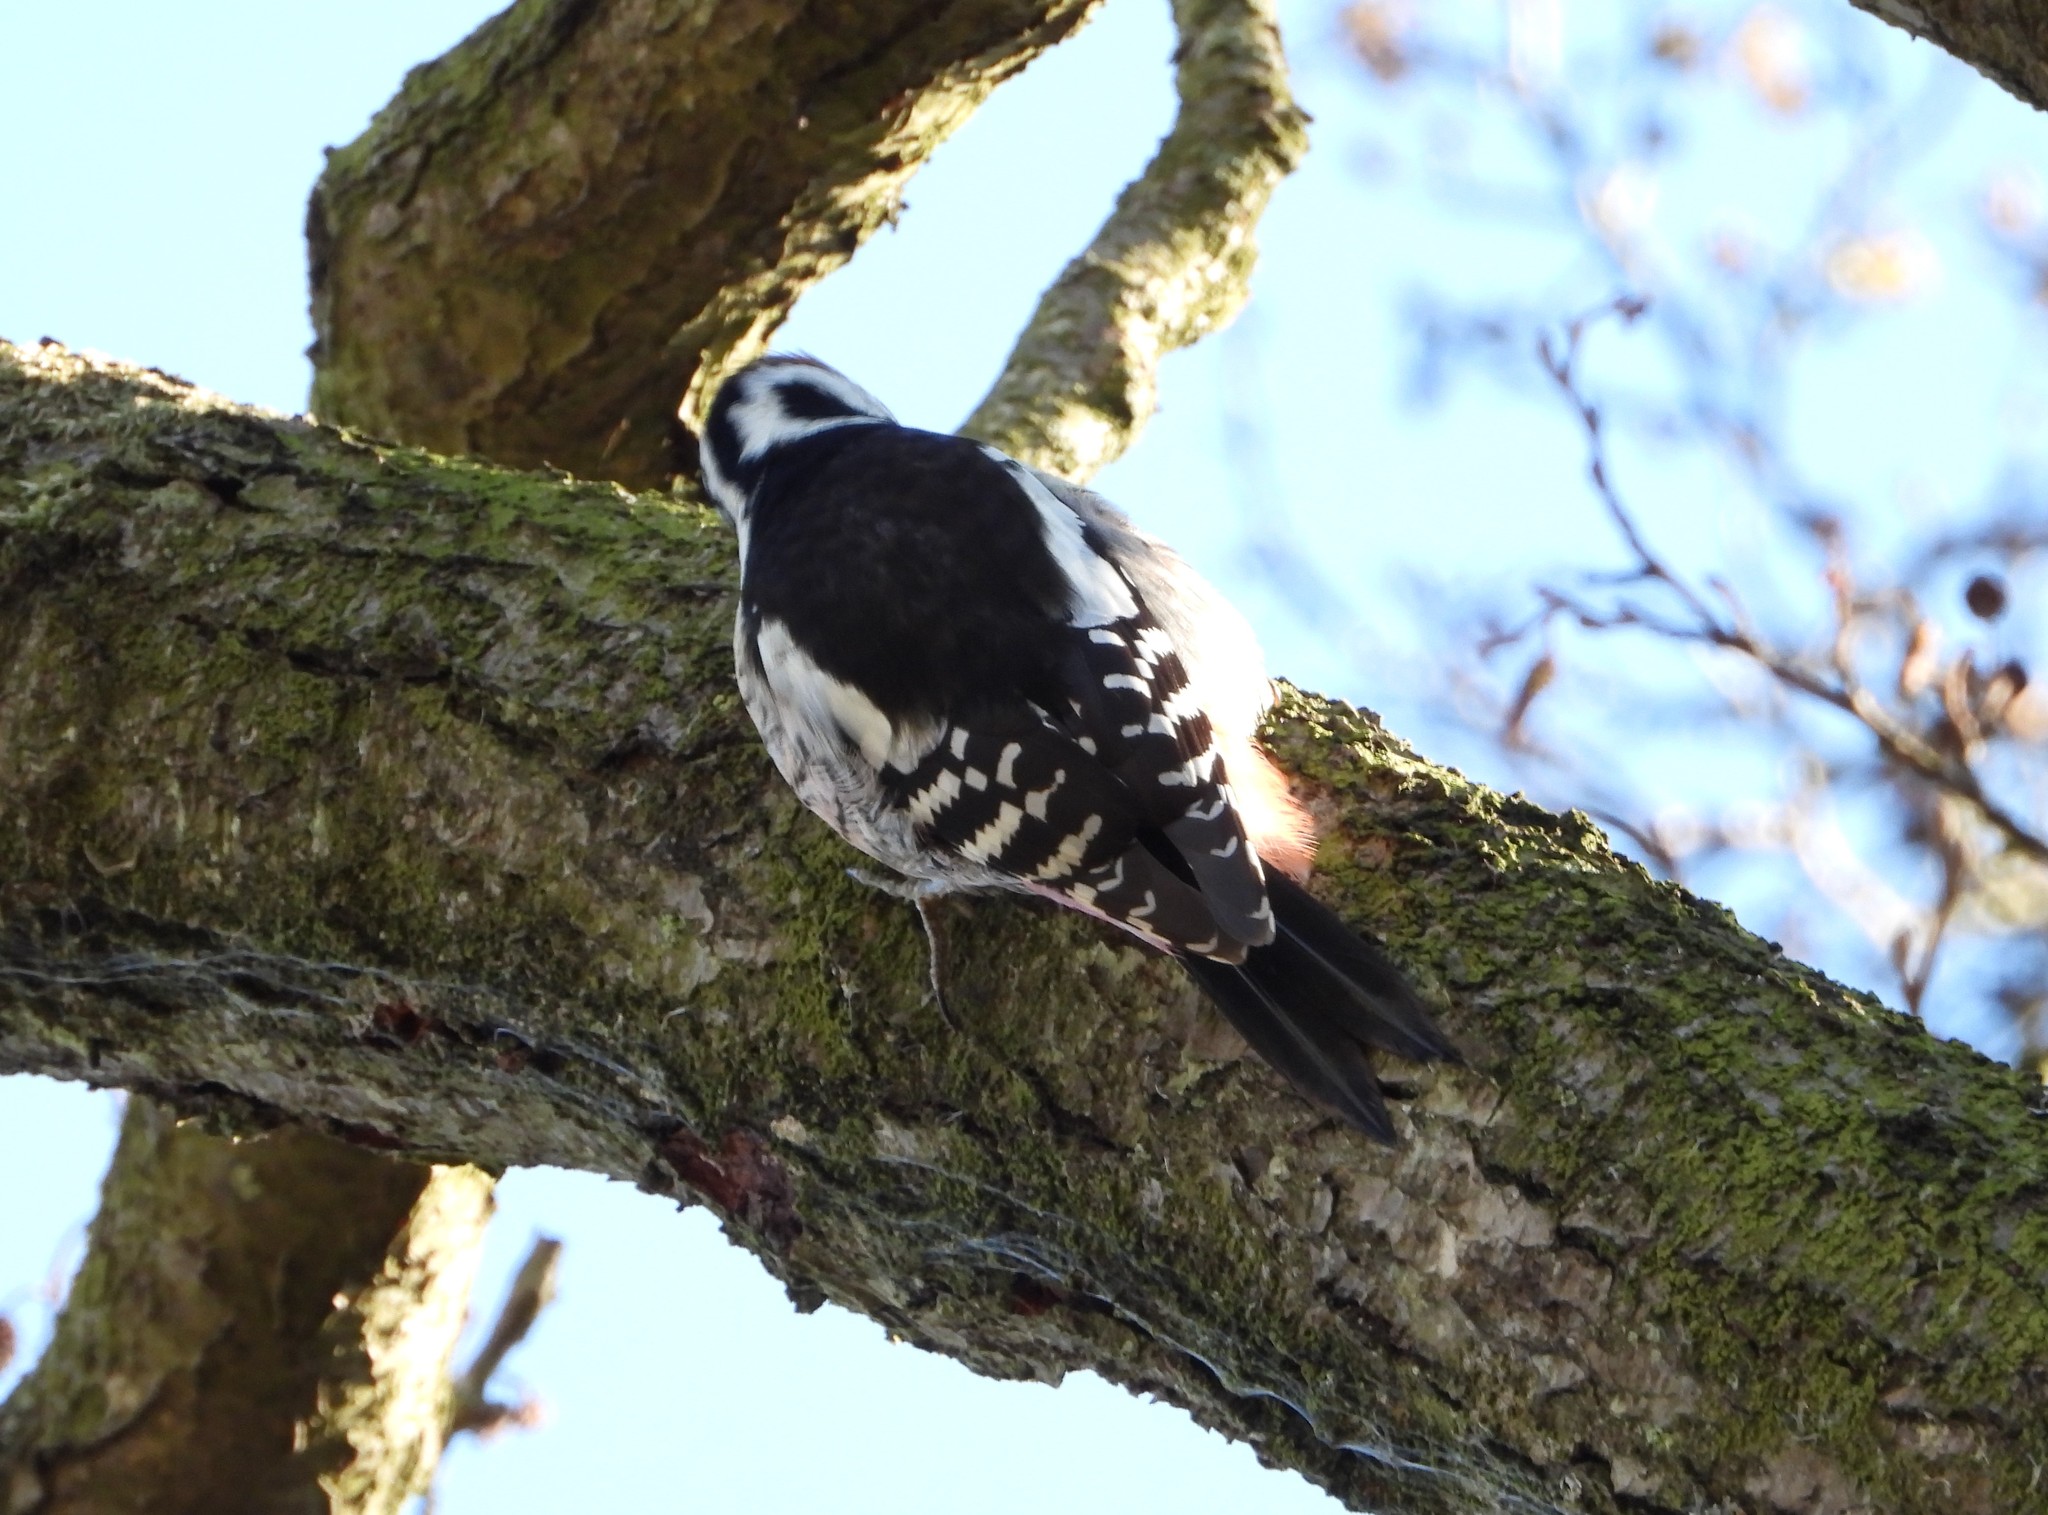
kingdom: Animalia
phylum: Chordata
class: Aves
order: Piciformes
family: Picidae
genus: Dendrocoptes
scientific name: Dendrocoptes medius
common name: Middle spotted woodpecker
